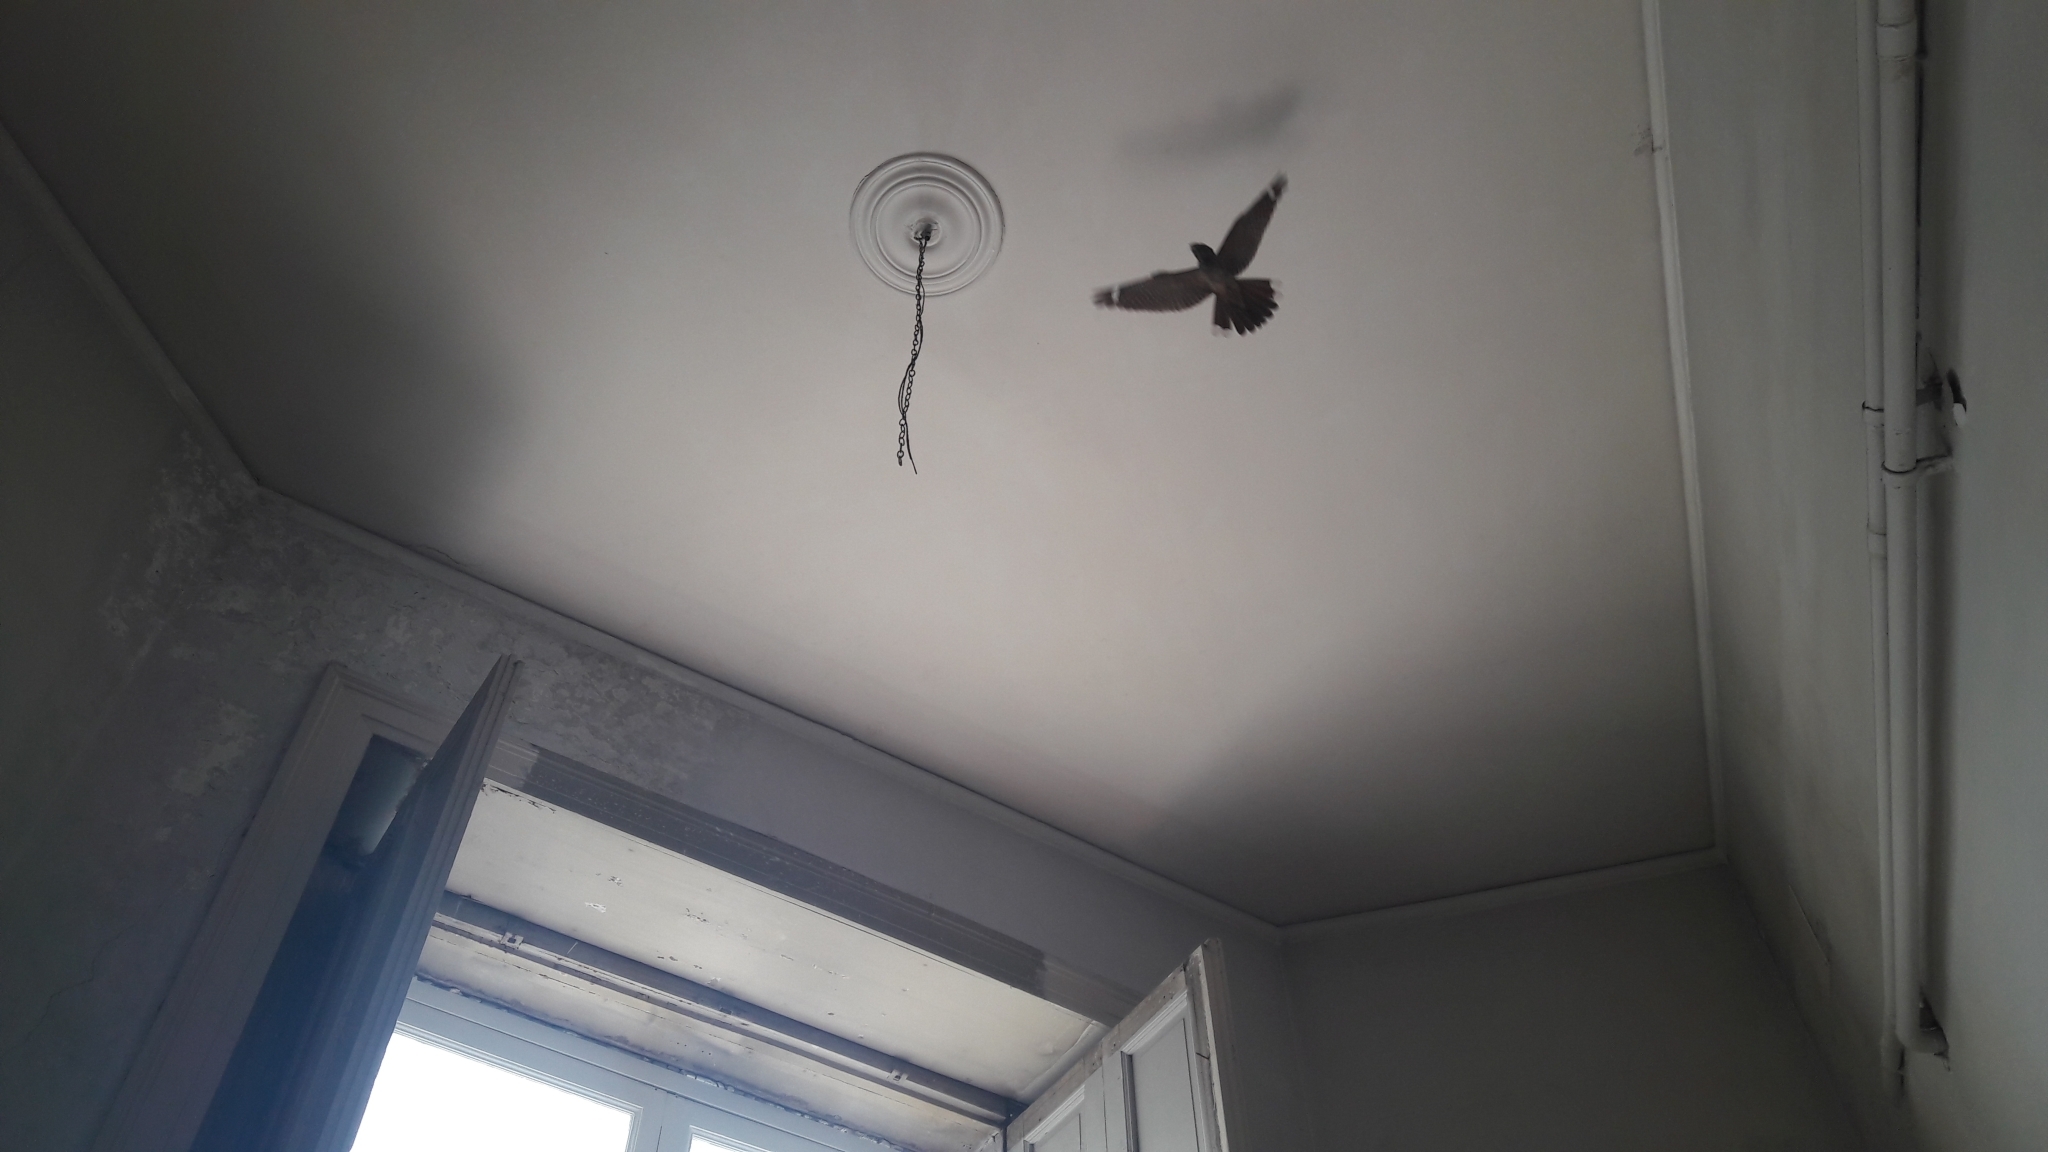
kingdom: Animalia
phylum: Chordata
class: Aves
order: Caprimulgiformes
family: Caprimulgidae
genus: Caprimulgus
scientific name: Caprimulgus europaeus
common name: European nightjar
